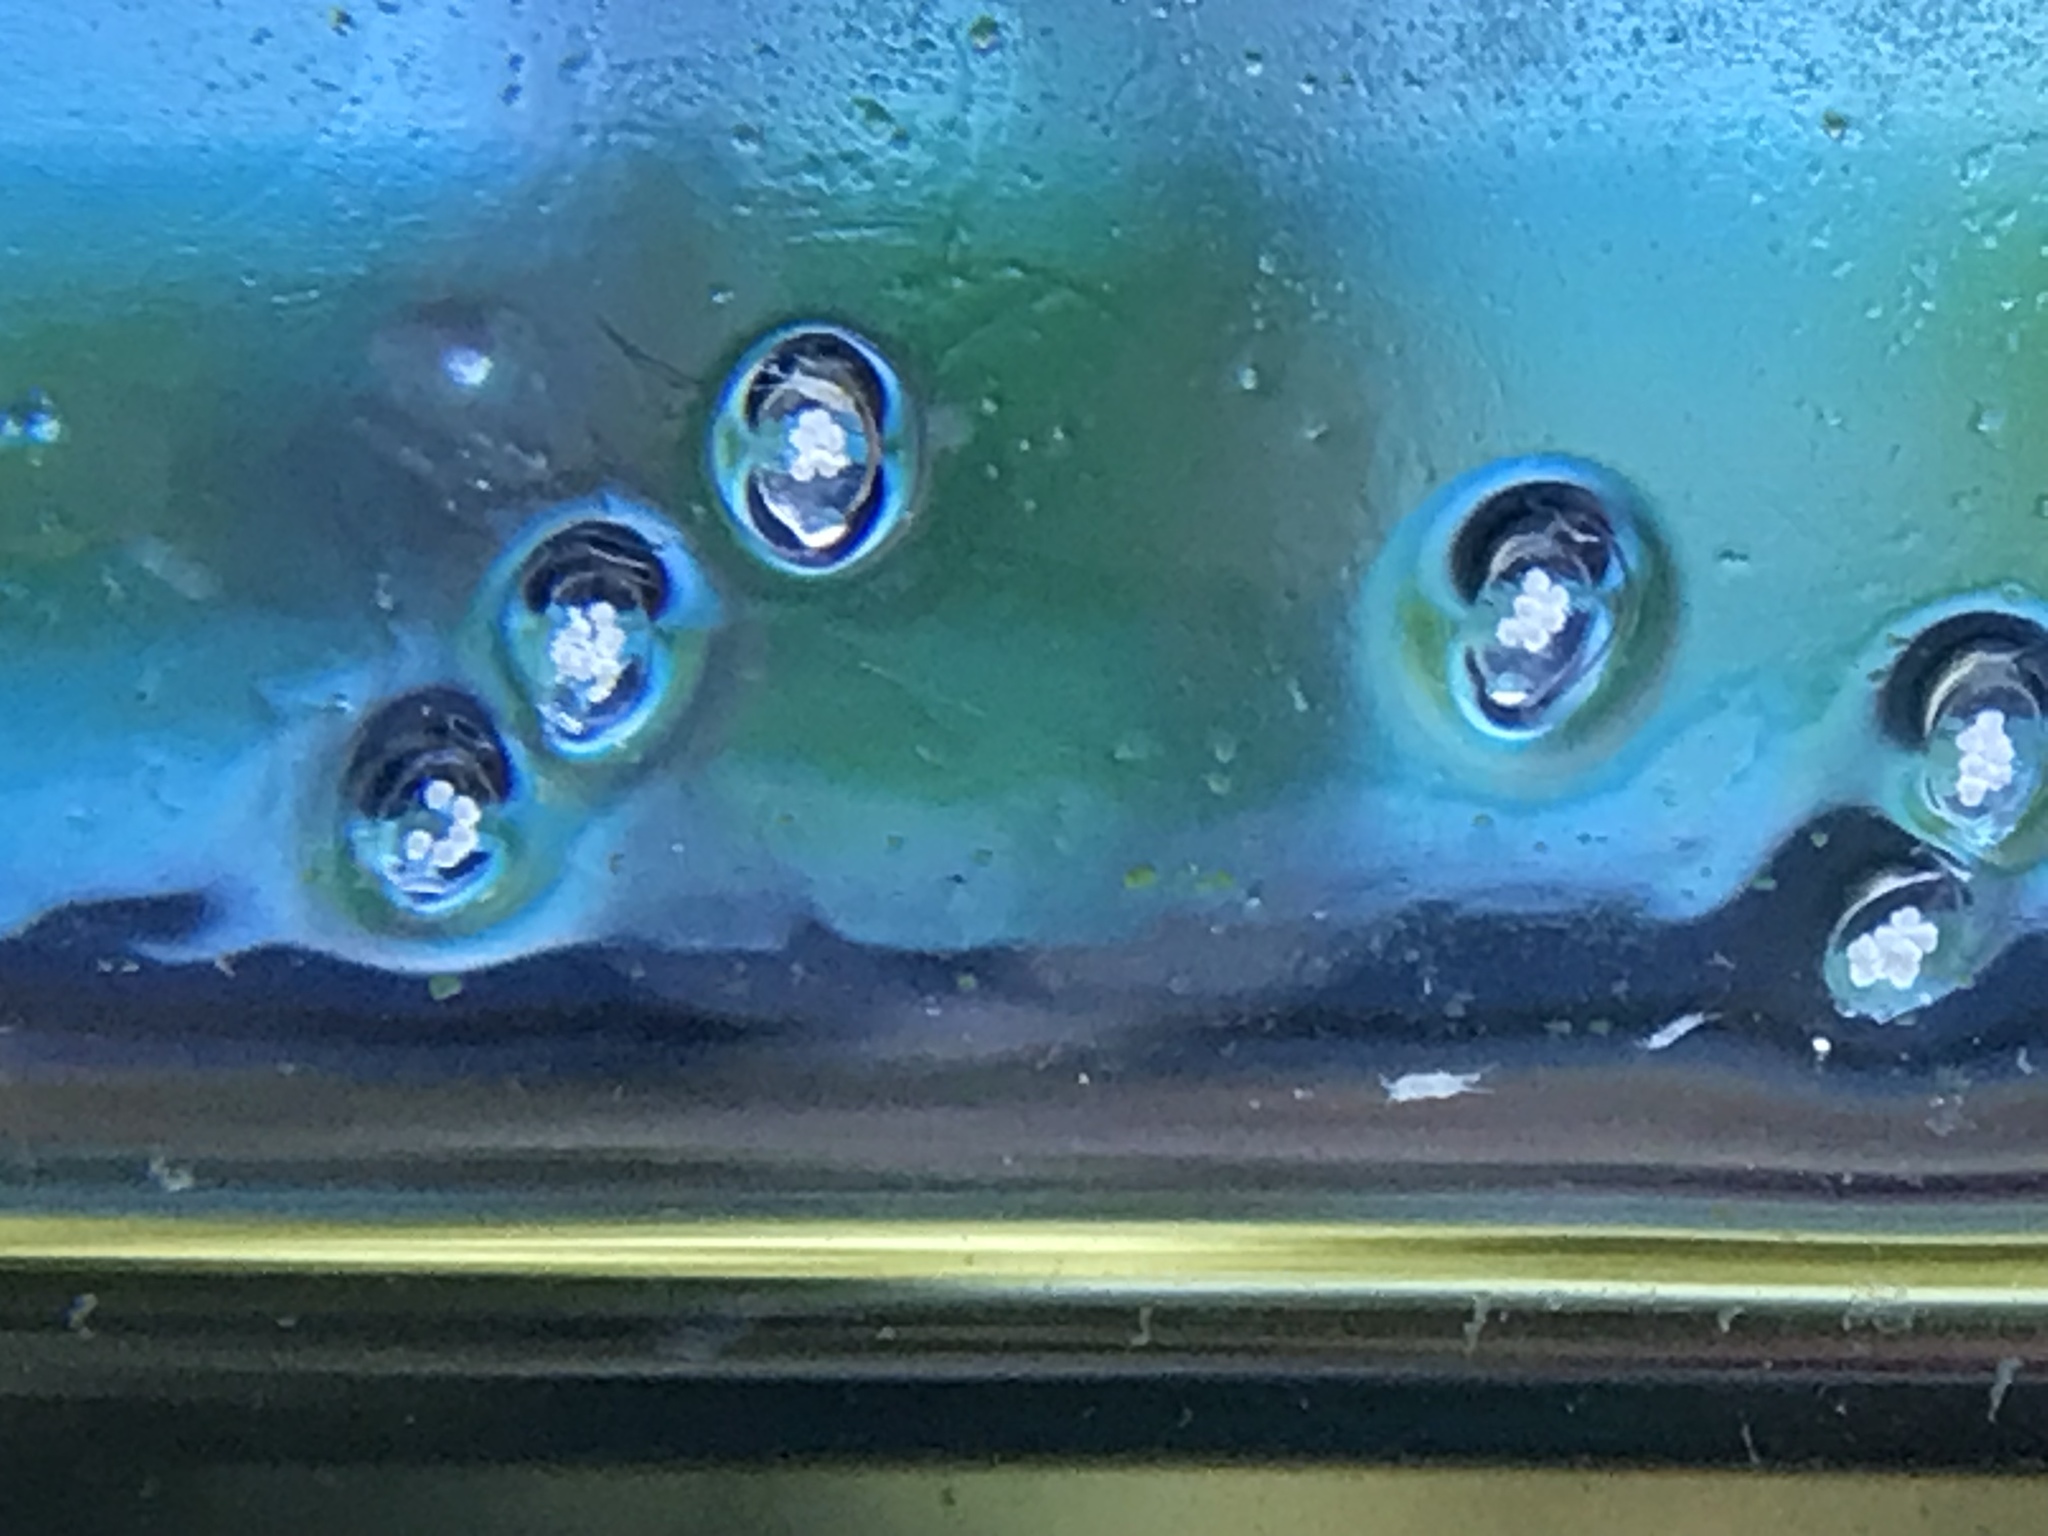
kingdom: Animalia
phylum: Mollusca
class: Gastropoda
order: Neogastropoda
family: Nassariidae
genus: Phrontis
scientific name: Phrontis vibex
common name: Bruised nassa
